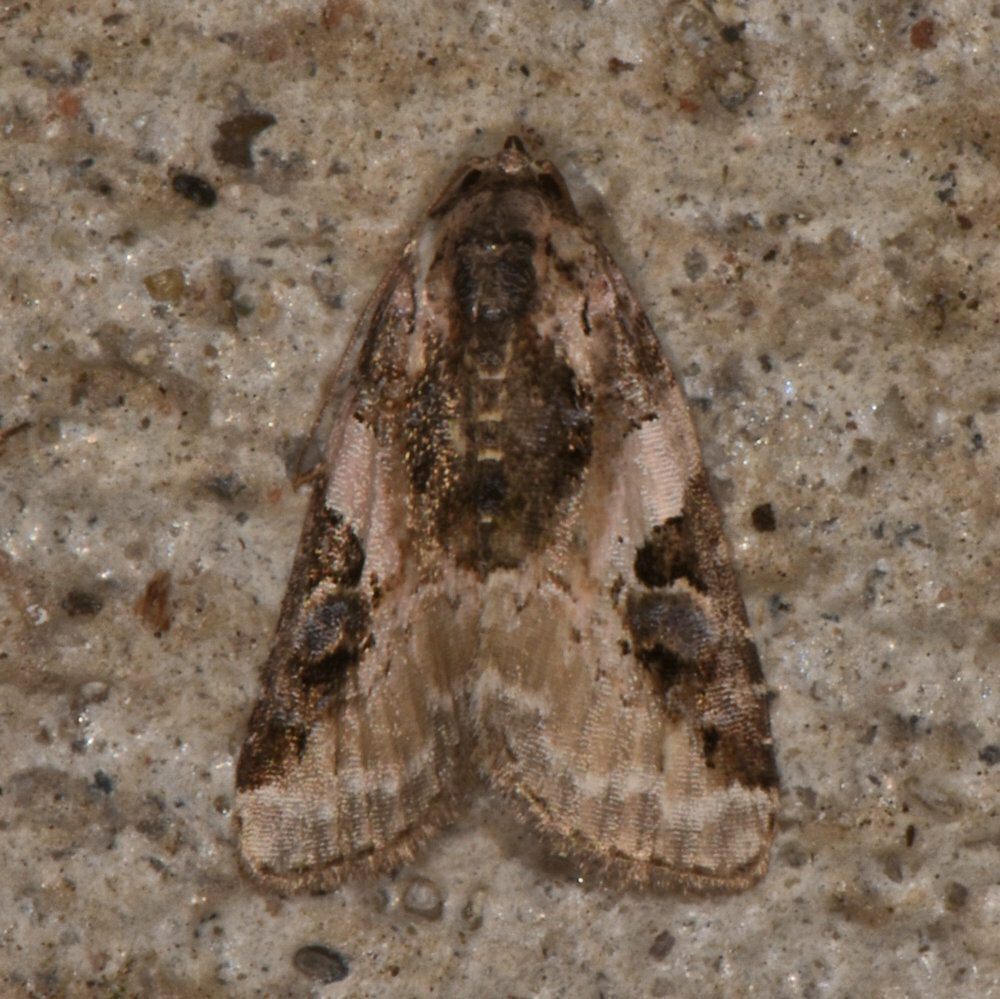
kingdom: Animalia
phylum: Arthropoda
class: Insecta
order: Lepidoptera
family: Noctuidae
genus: Pseudeustrotia
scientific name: Pseudeustrotia carneola
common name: Pink-barred lithacodia moth
